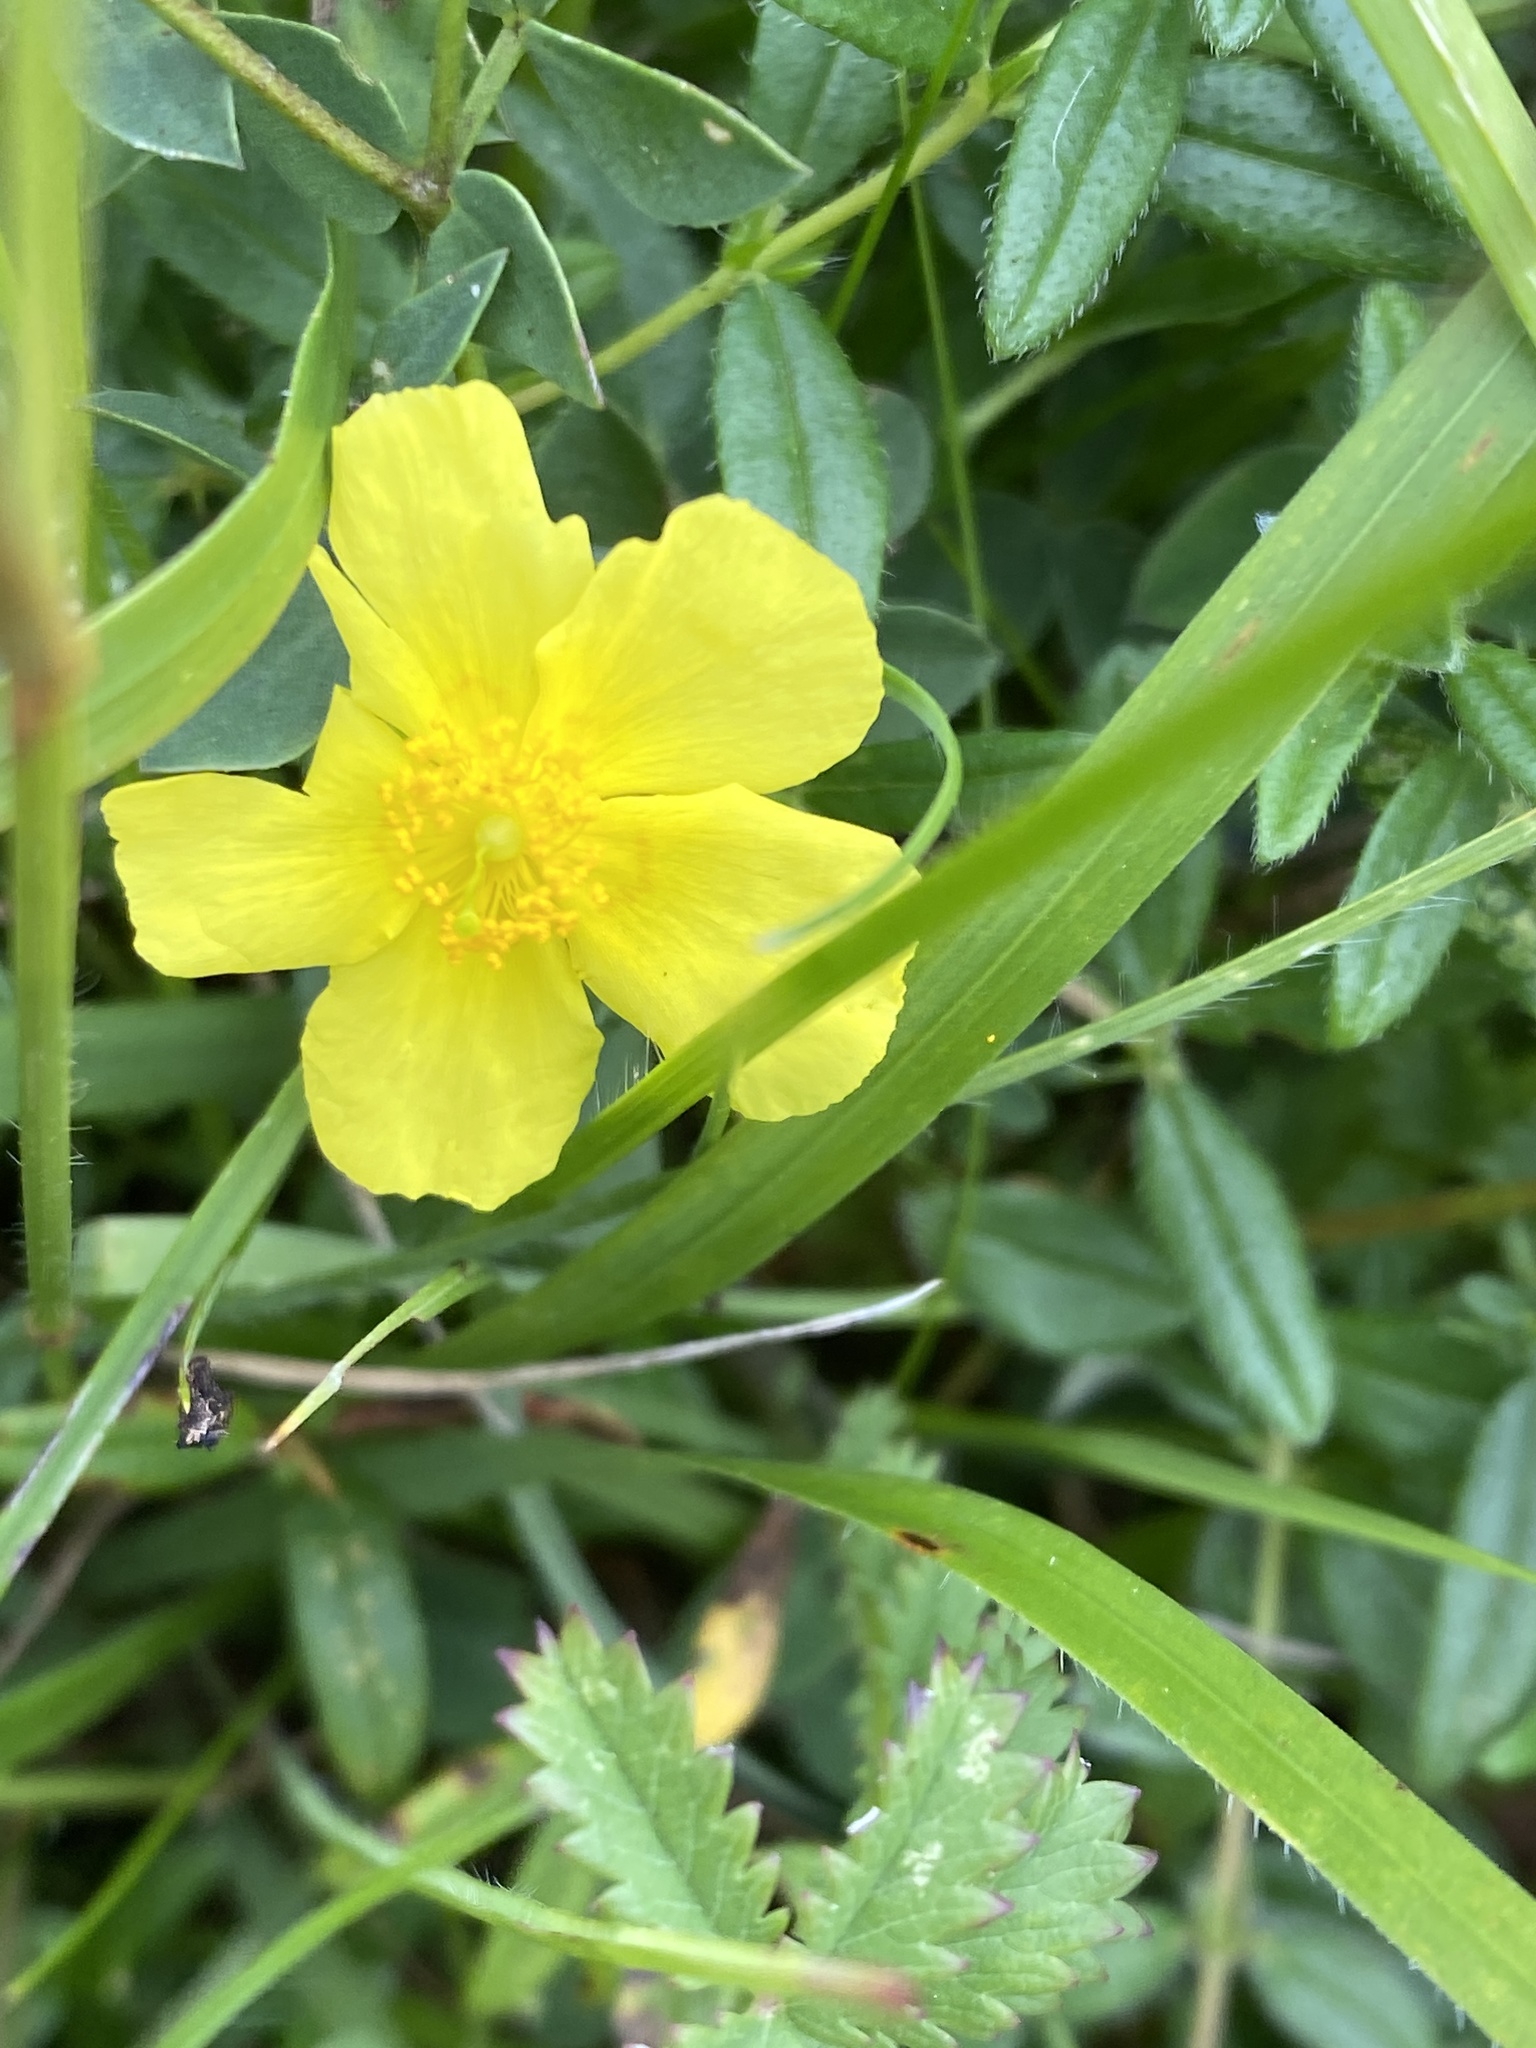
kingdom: Plantae
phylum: Tracheophyta
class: Magnoliopsida
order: Malvales
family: Cistaceae
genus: Helianthemum
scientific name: Helianthemum nummularium
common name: Common rock-rose
